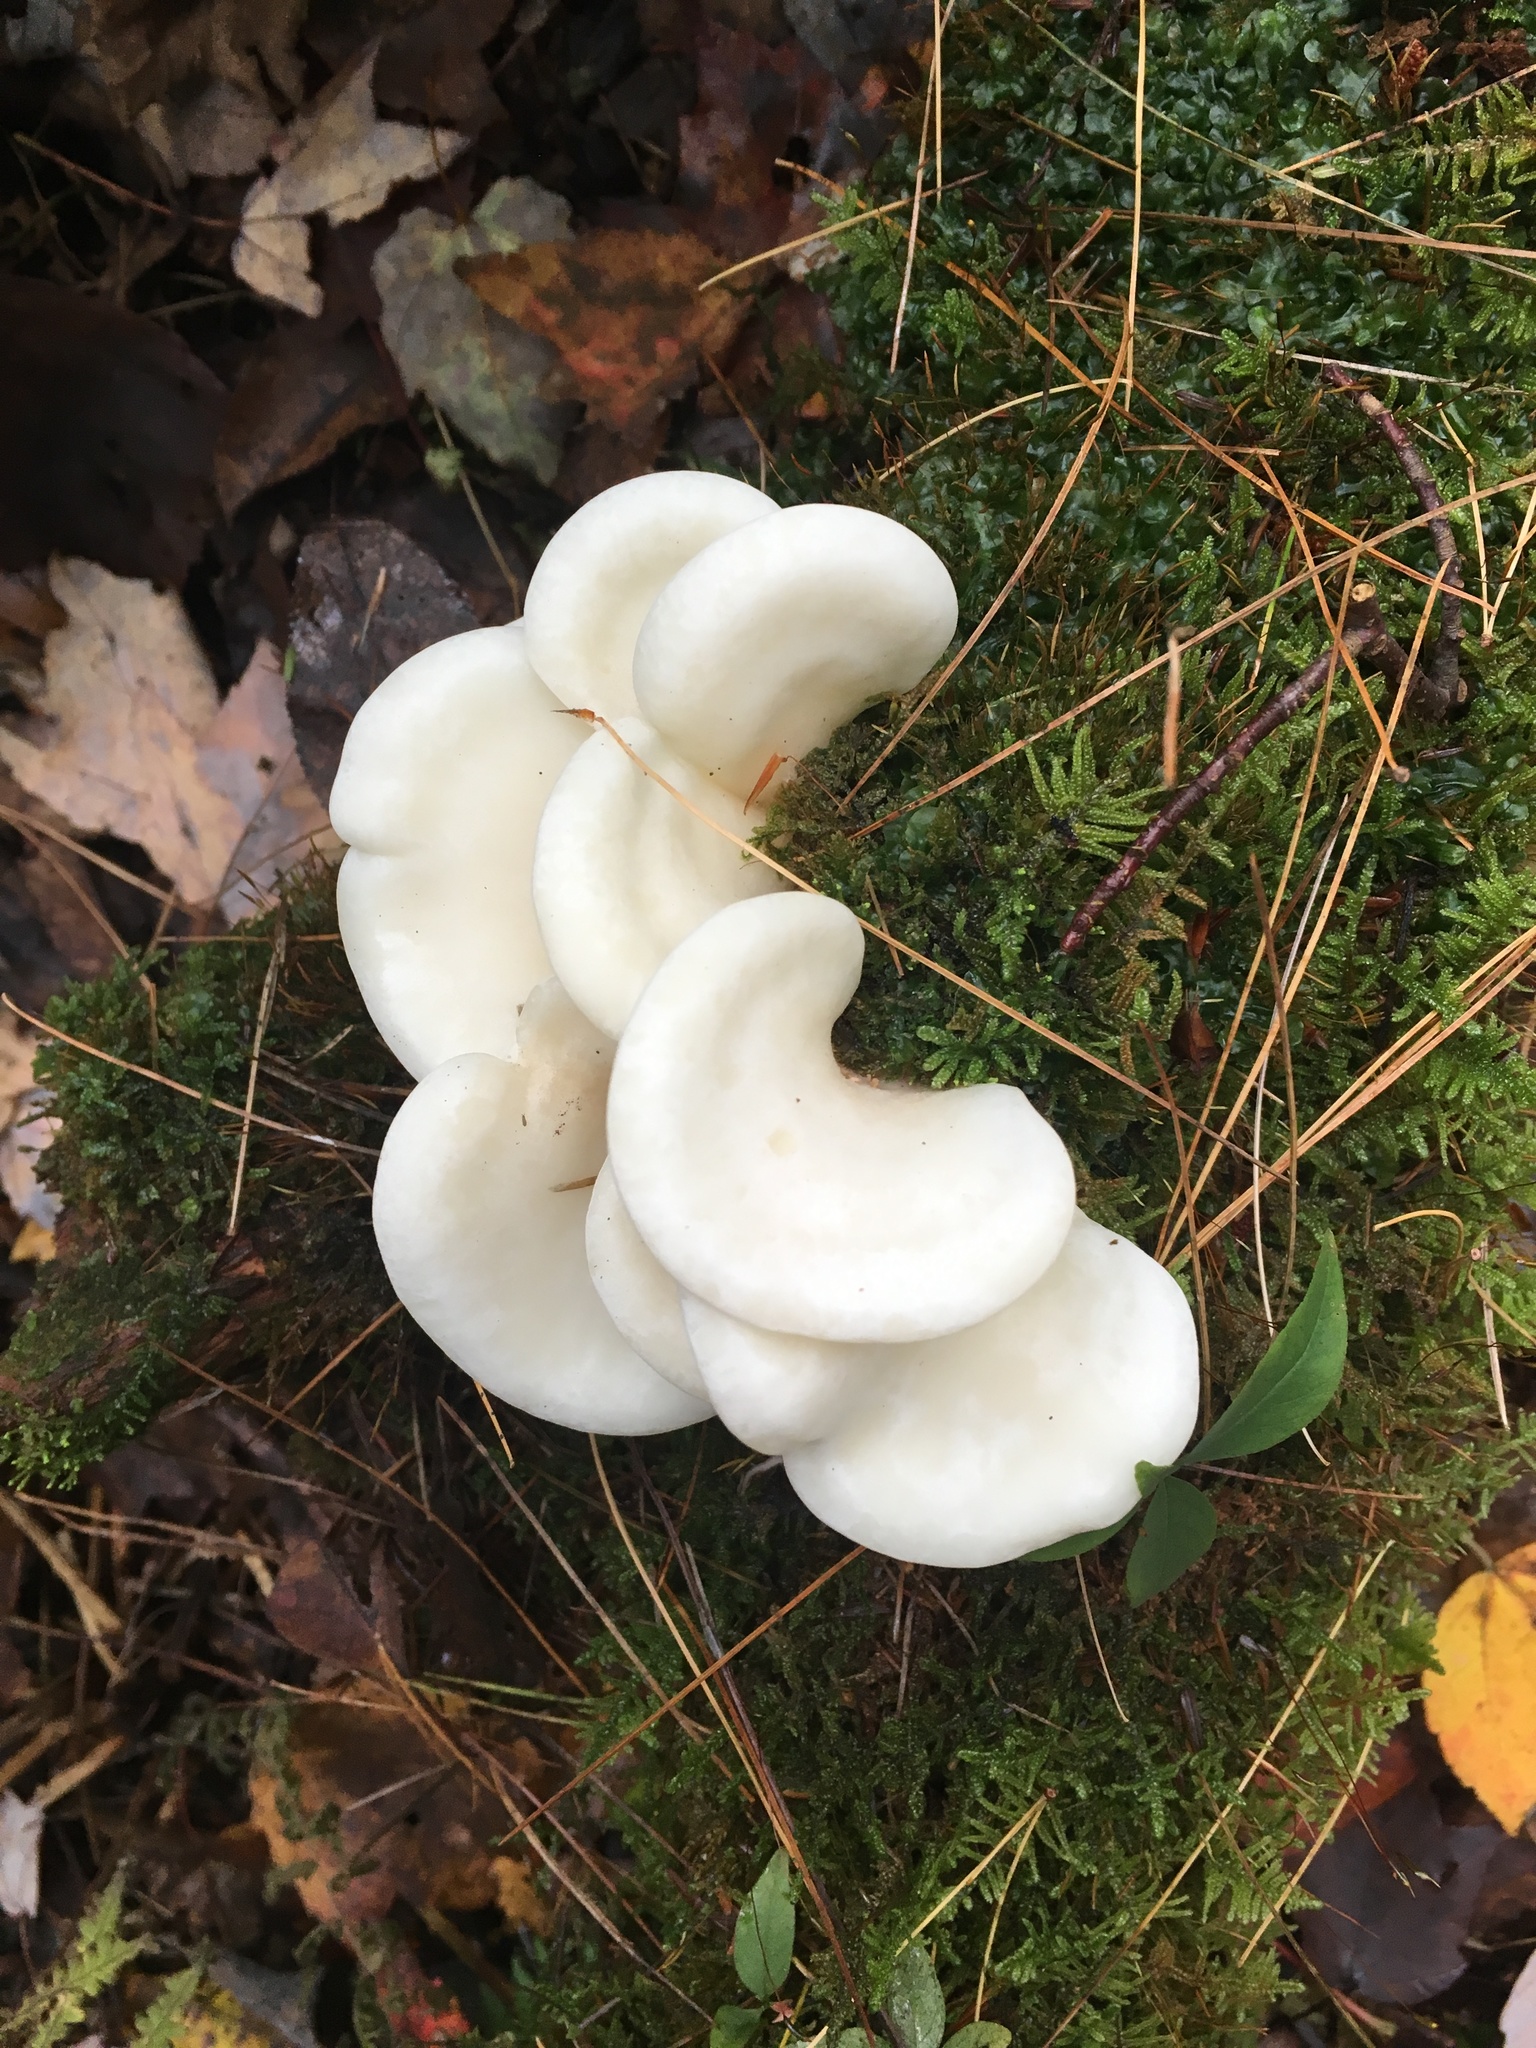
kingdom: Fungi
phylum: Basidiomycota
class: Agaricomycetes
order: Agaricales
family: Marasmiaceae
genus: Pleurocybella
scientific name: Pleurocybella porrigens
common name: Angel's wings
